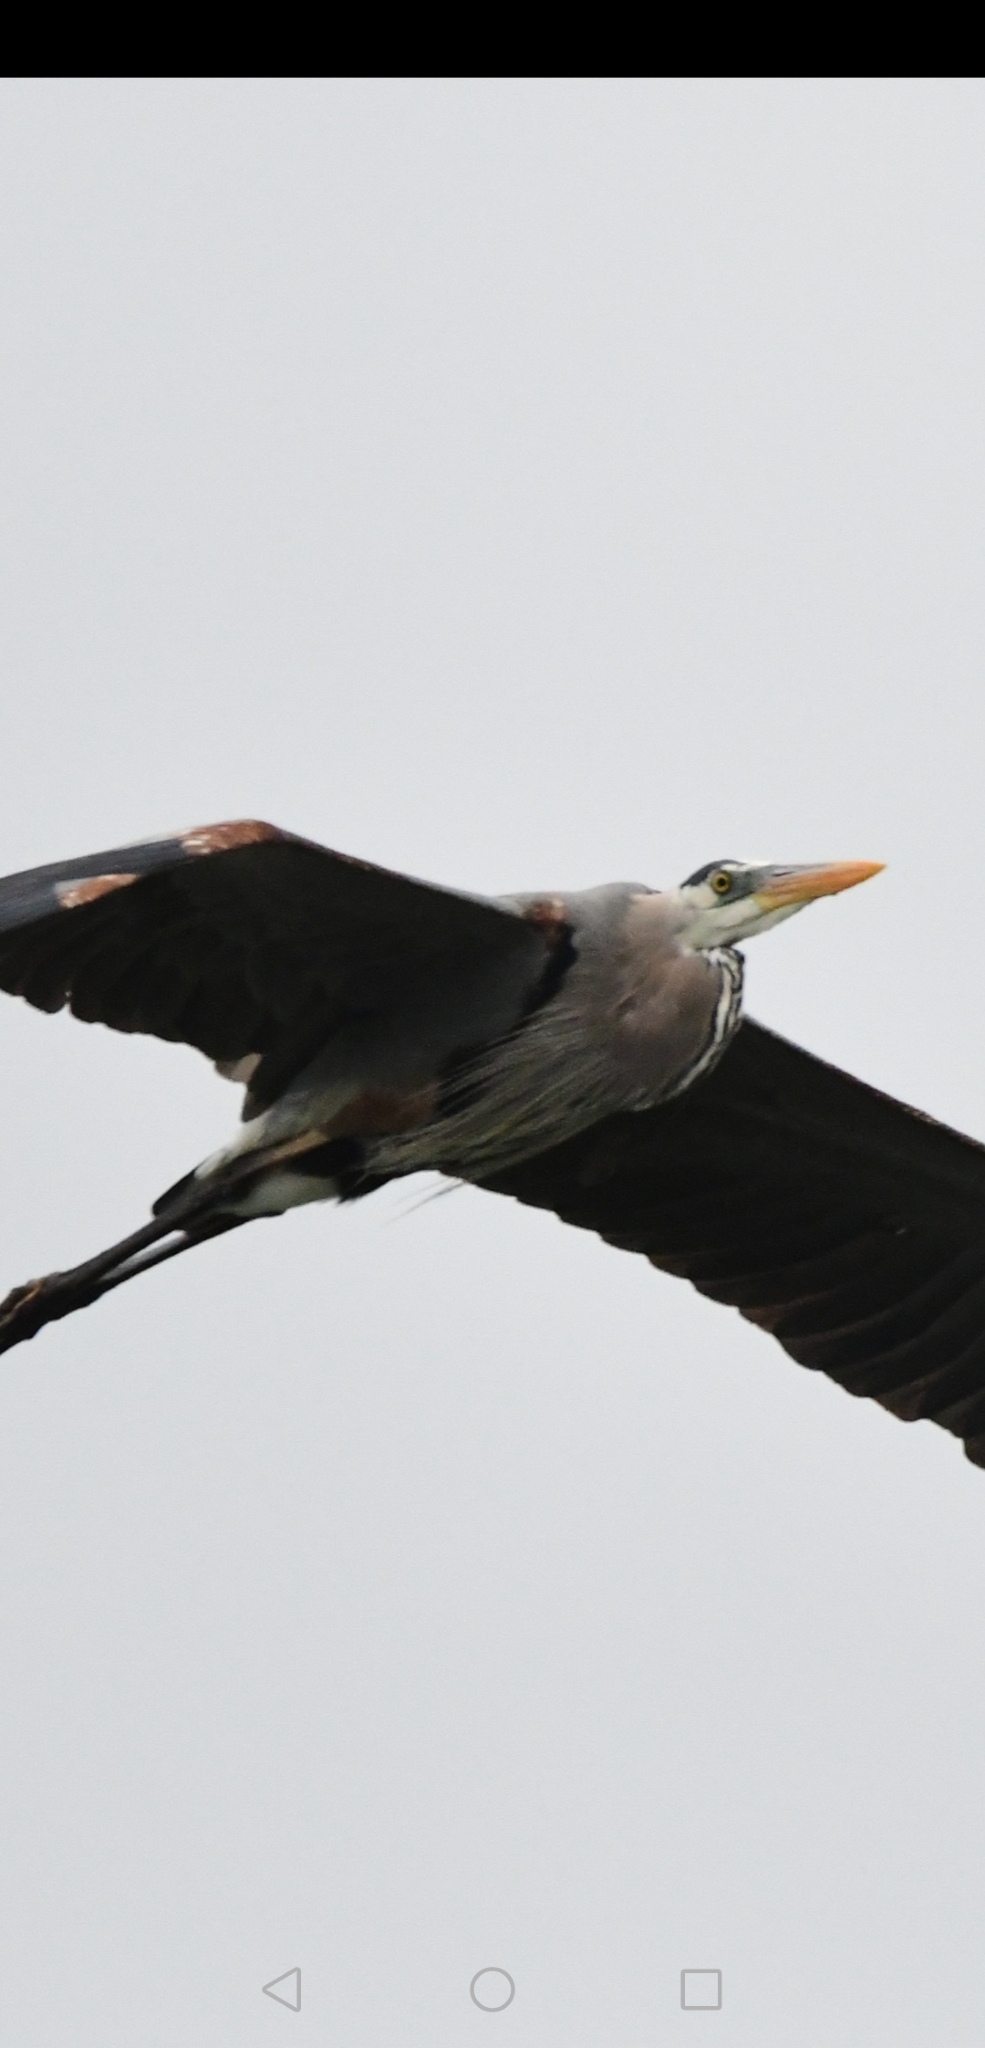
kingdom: Animalia
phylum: Chordata
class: Aves
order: Pelecaniformes
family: Ardeidae
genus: Ardea
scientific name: Ardea herodias
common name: Great blue heron
